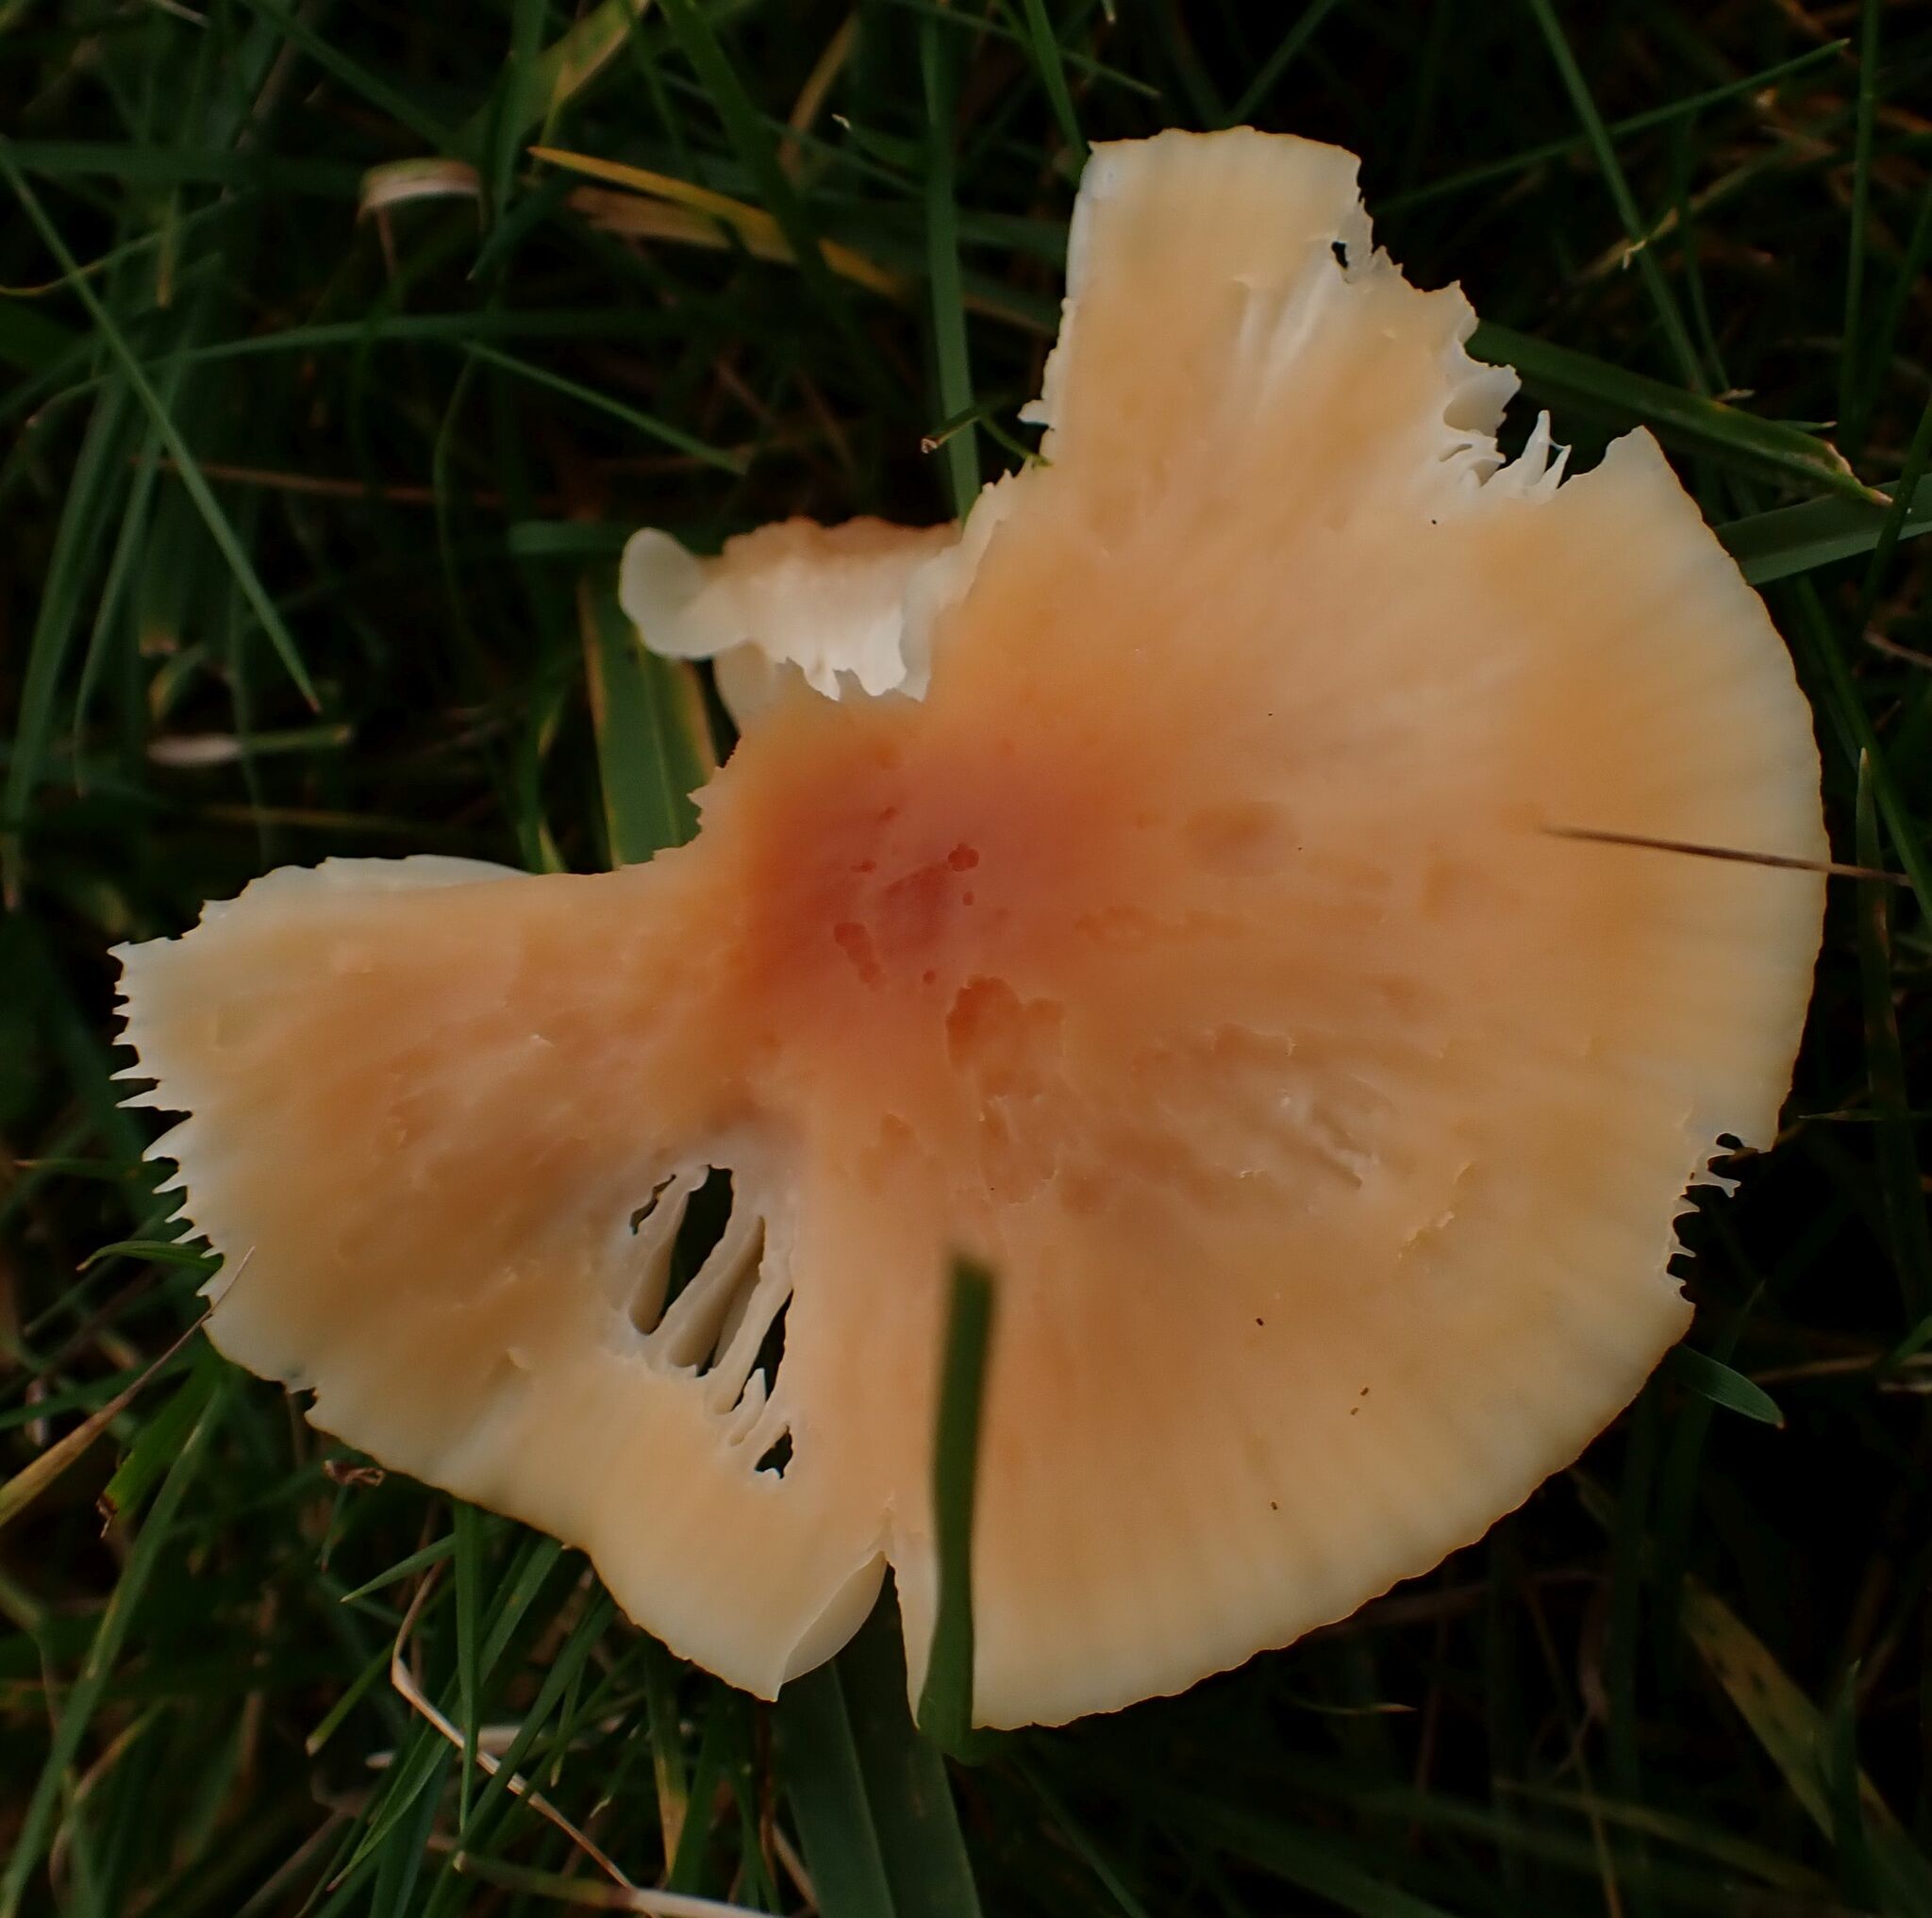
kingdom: Fungi
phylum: Basidiomycota
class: Agaricomycetes
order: Agaricales
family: Hygrophoraceae
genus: Cuphophyllus
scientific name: Cuphophyllus pratensis
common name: Meadow waxcap
